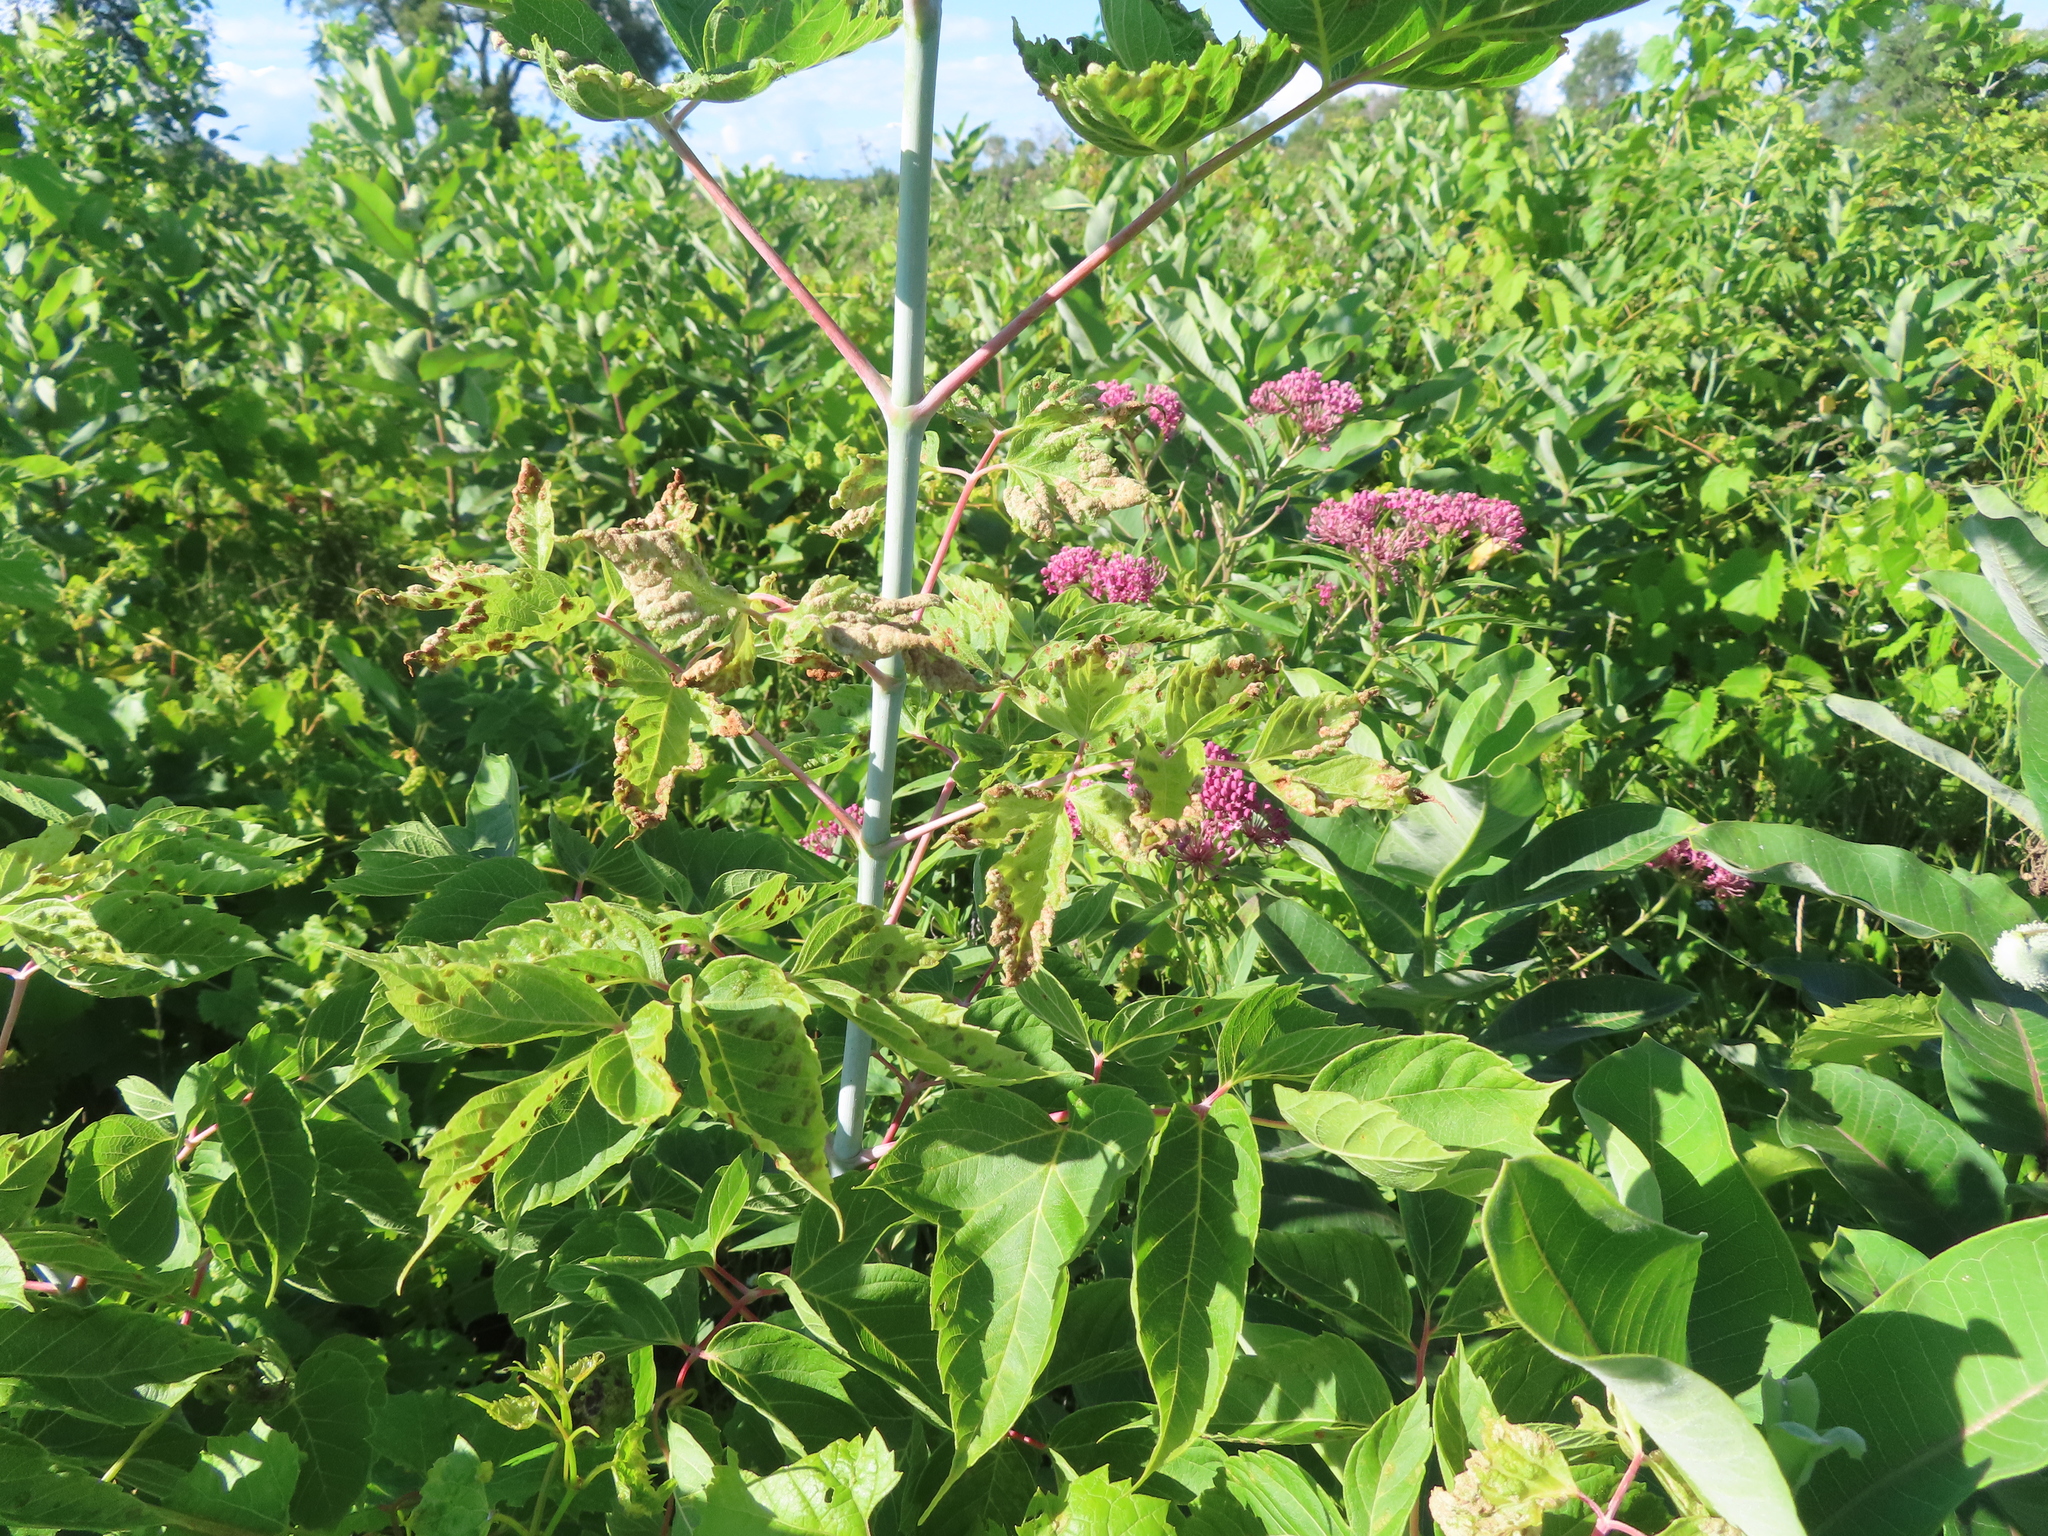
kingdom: Plantae
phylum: Tracheophyta
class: Magnoliopsida
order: Sapindales
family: Sapindaceae
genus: Acer
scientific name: Acer negundo
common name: Ashleaf maple
